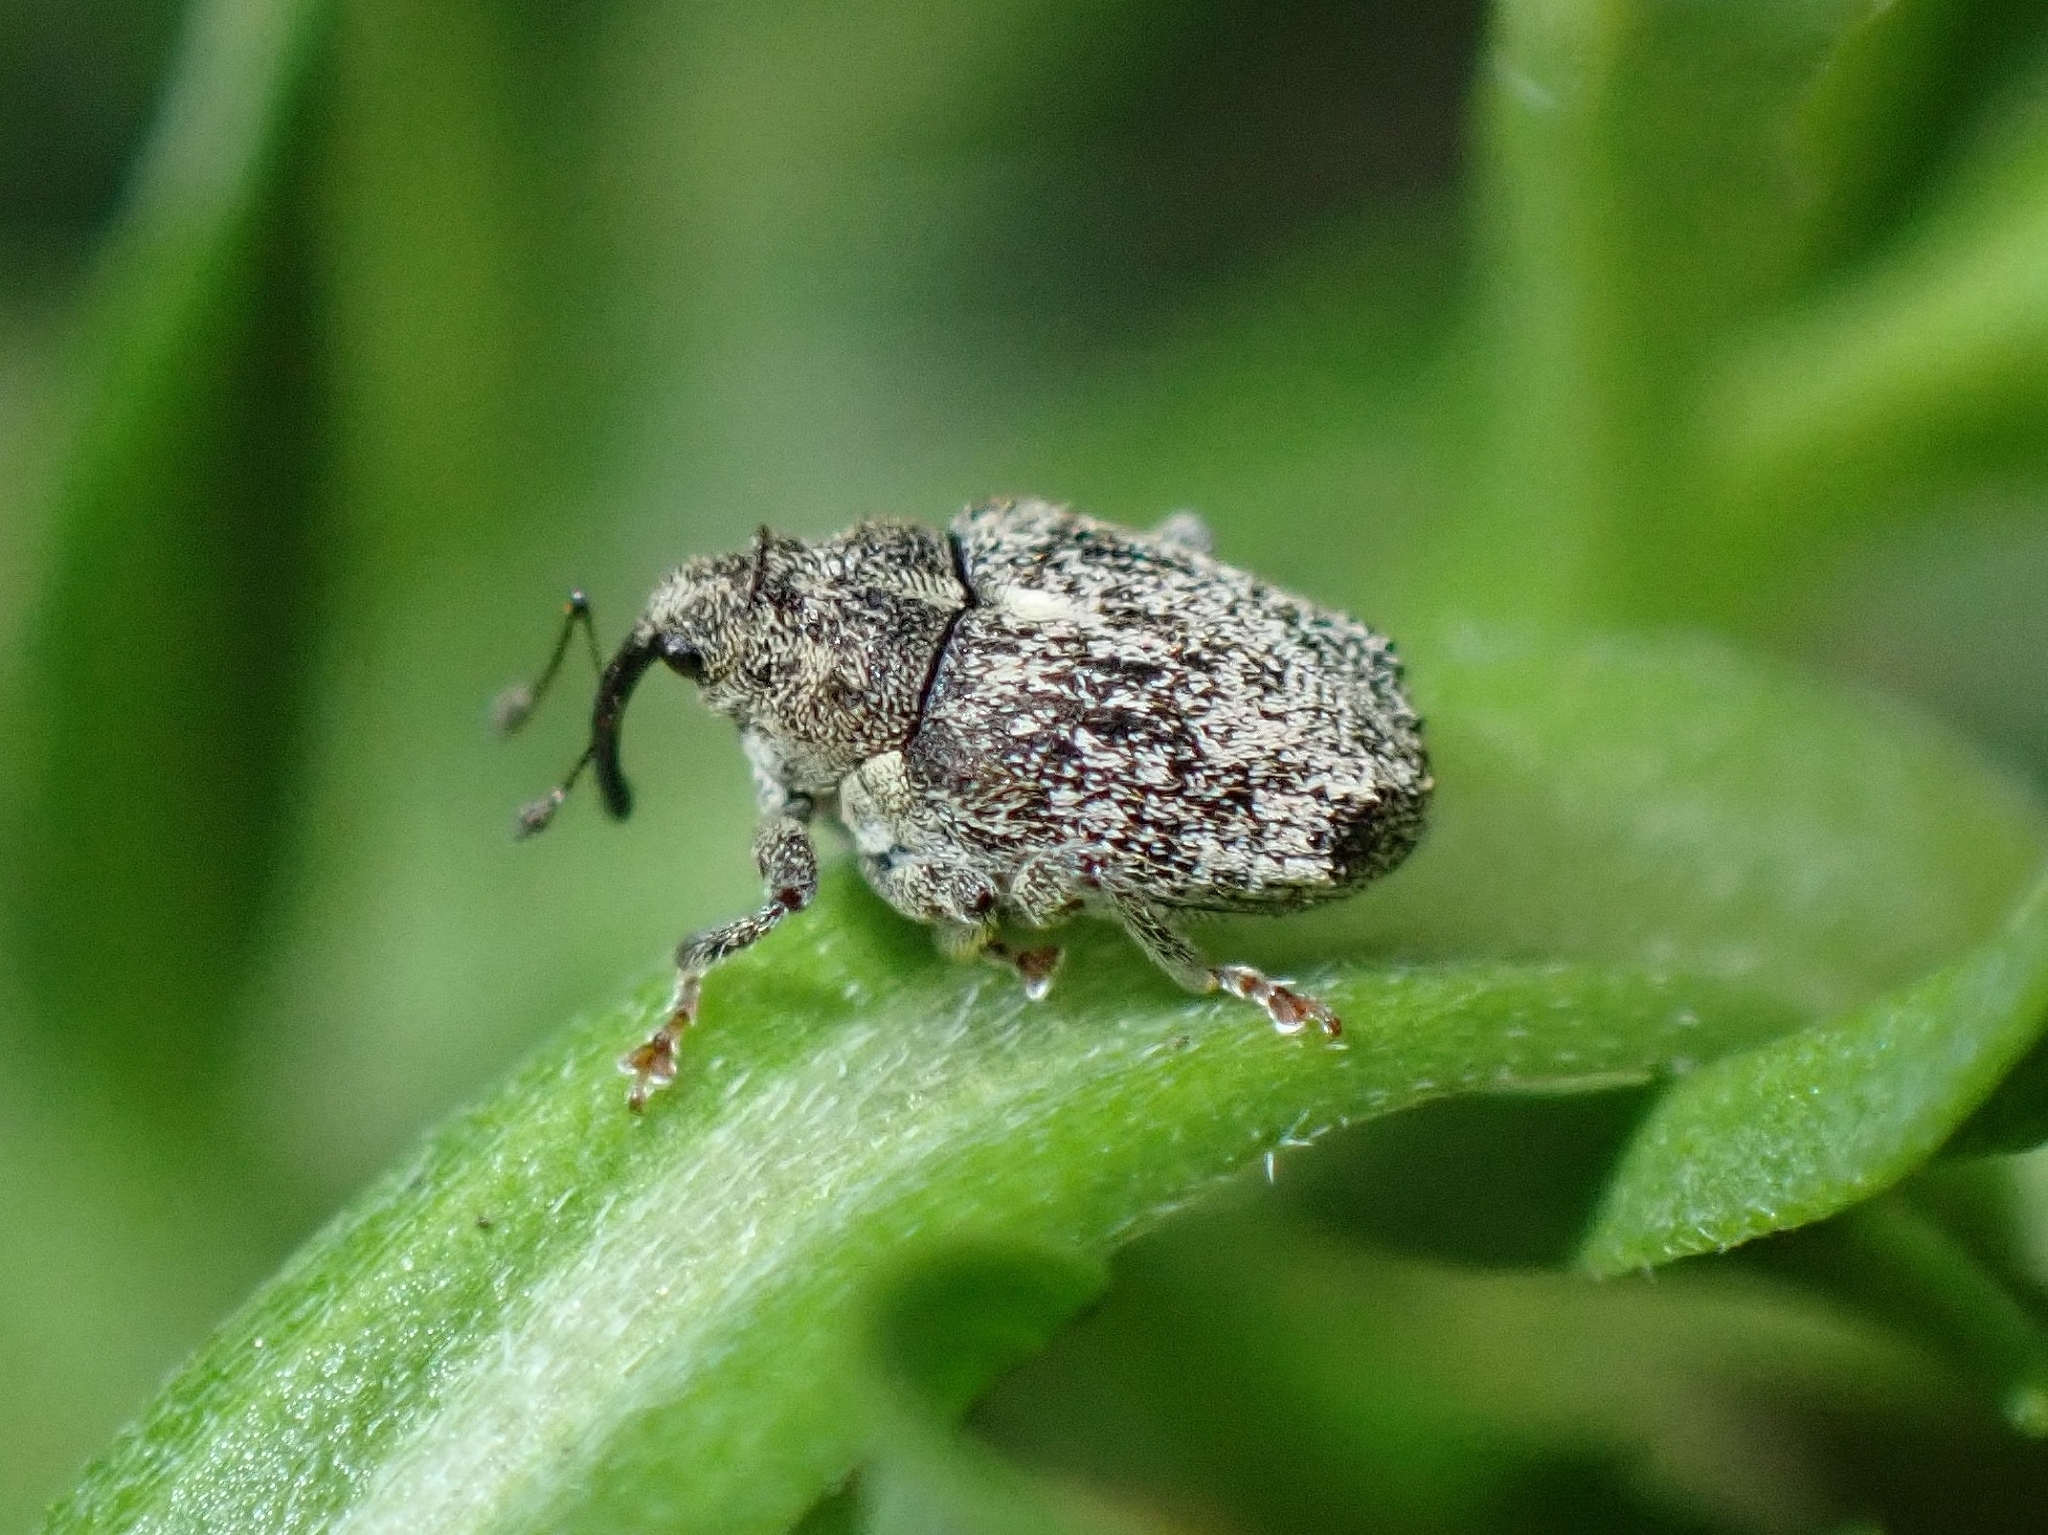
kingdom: Animalia
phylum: Arthropoda
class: Insecta
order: Coleoptera
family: Curculionidae
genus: Ceutorhynchus
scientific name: Ceutorhynchus pallidactylus
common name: Cabbage stem weavil
